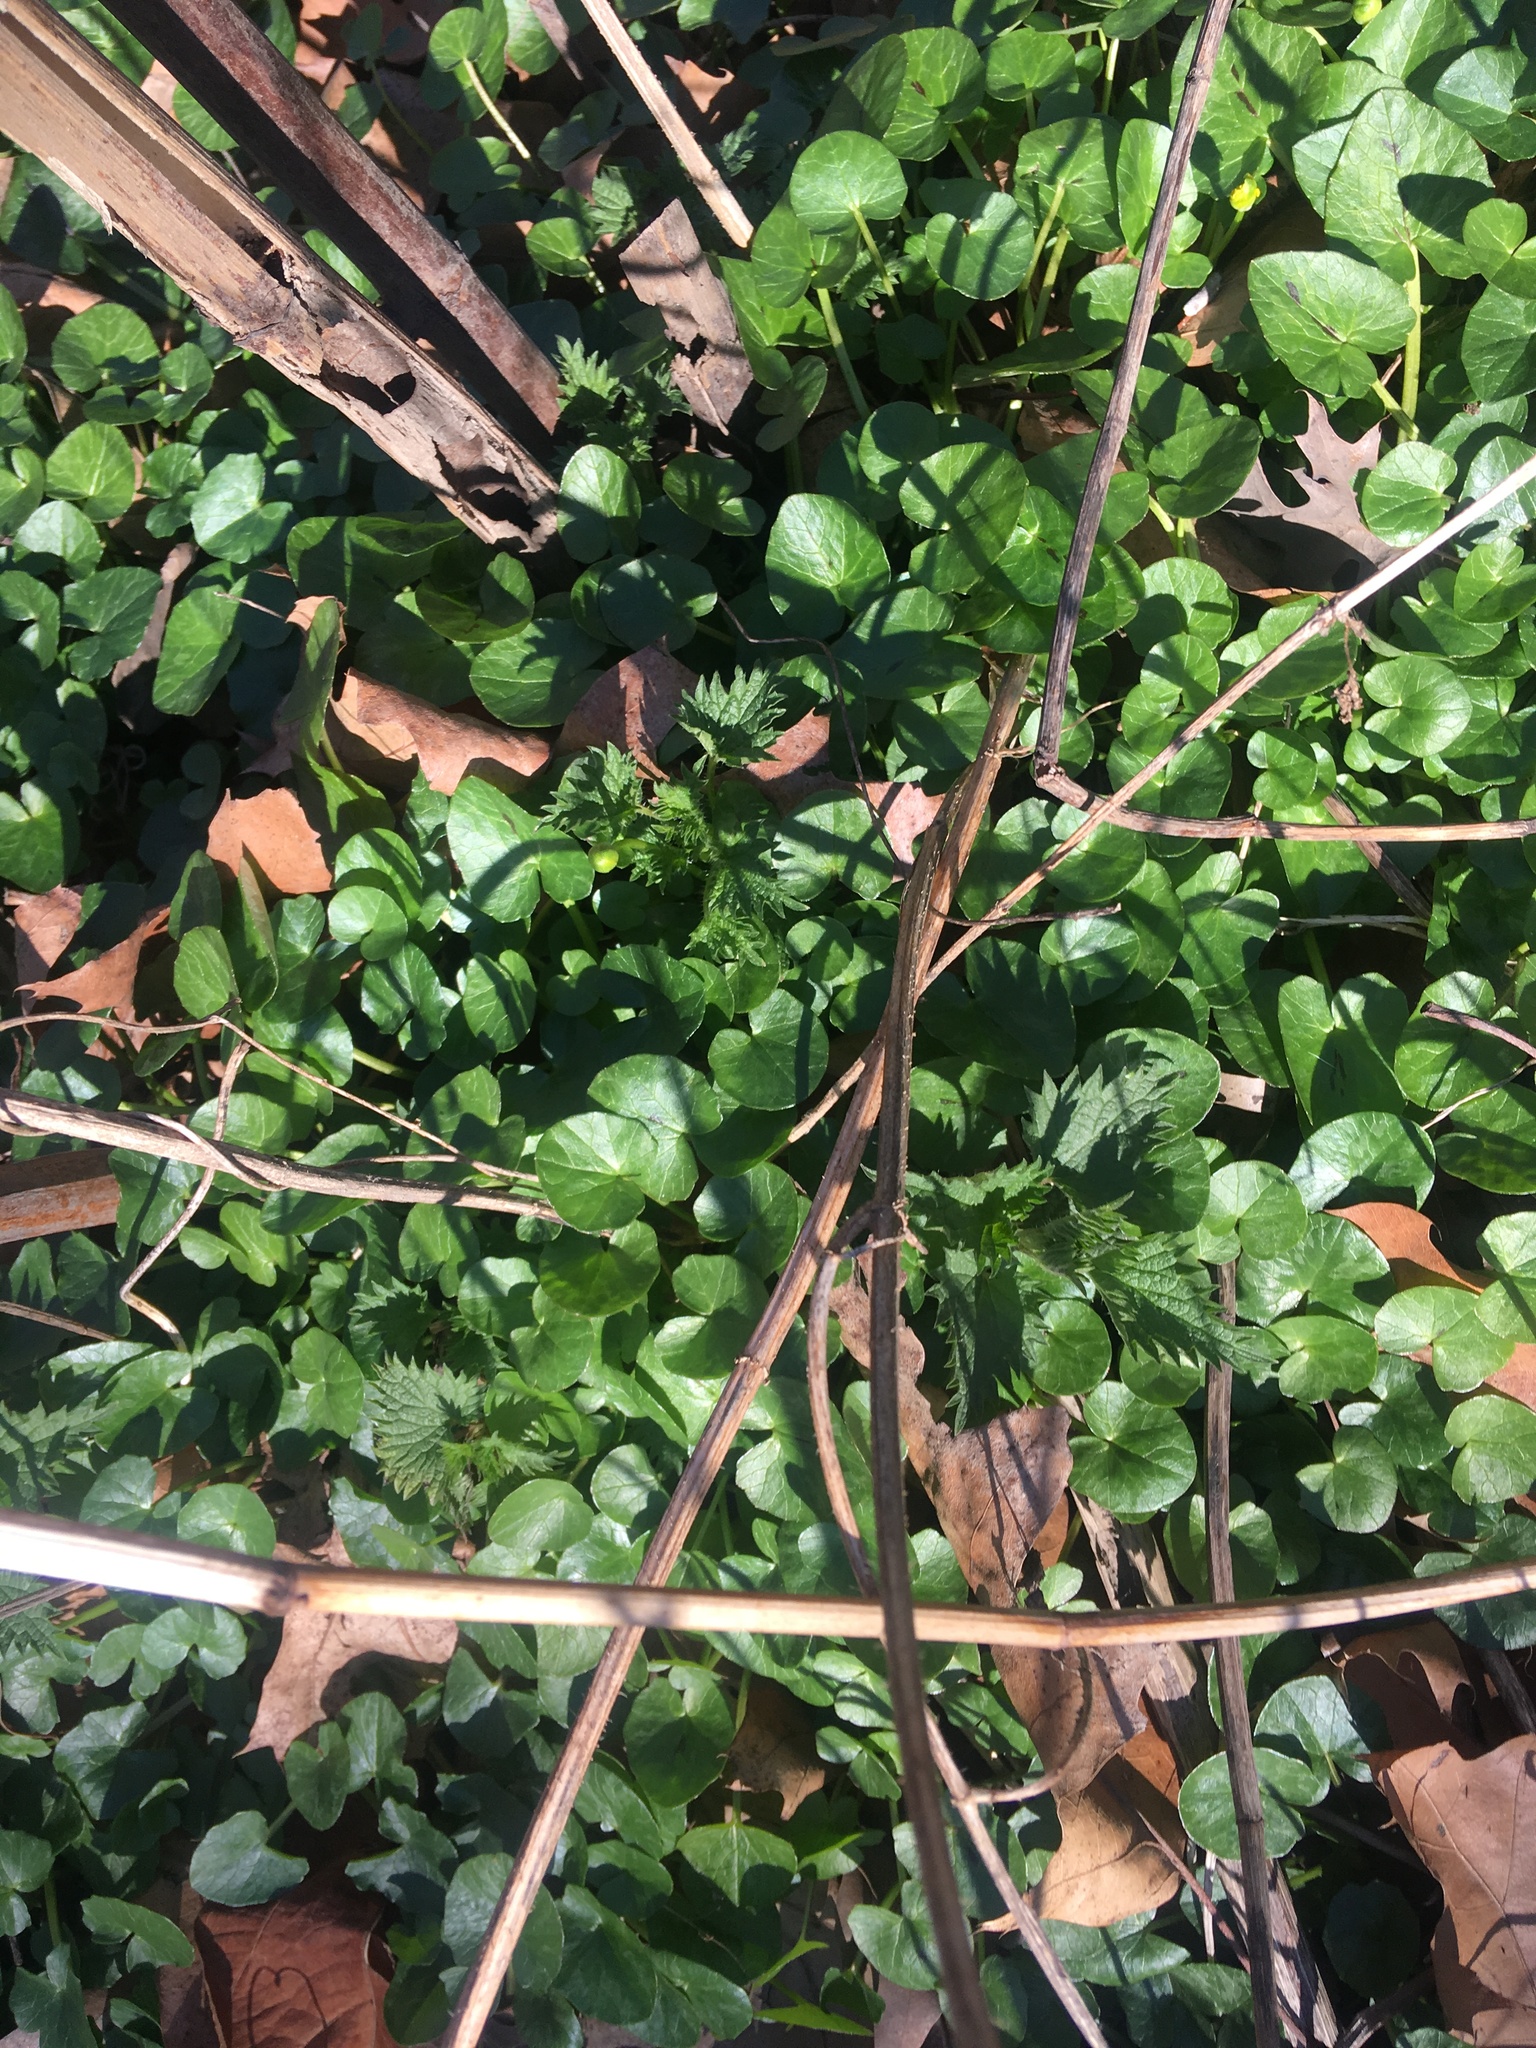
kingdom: Plantae
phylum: Tracheophyta
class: Magnoliopsida
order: Ranunculales
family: Ranunculaceae
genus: Ficaria
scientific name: Ficaria verna
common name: Lesser celandine
